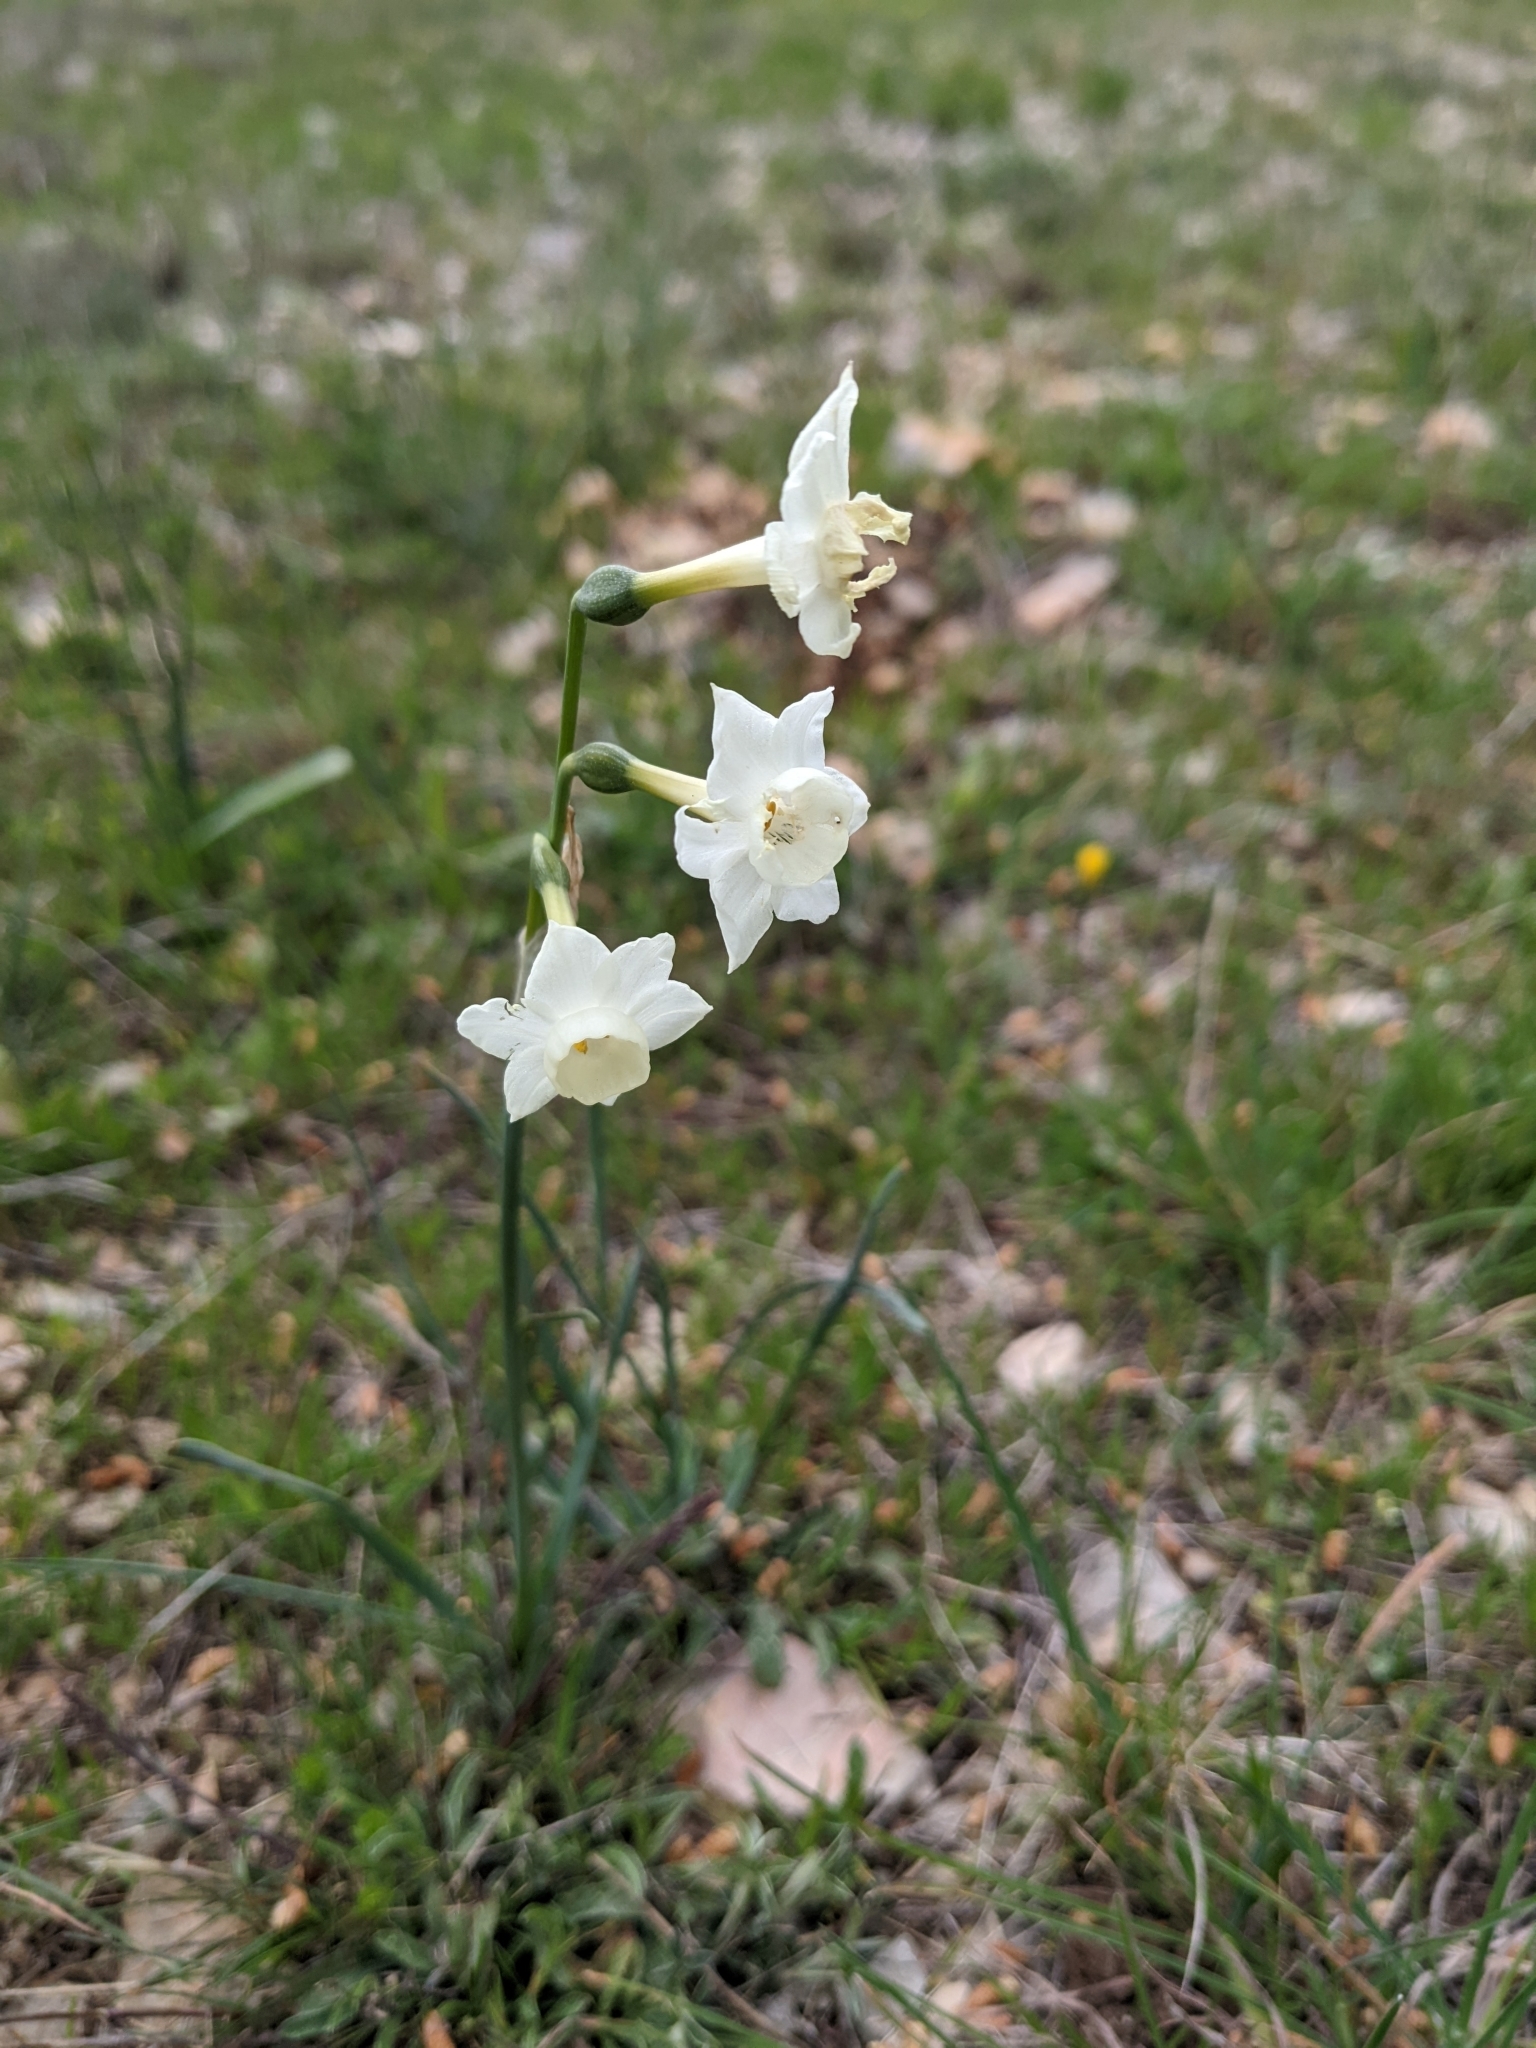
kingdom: Plantae
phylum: Tracheophyta
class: Liliopsida
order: Asparagales
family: Amaryllidaceae
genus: Narcissus
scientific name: Narcissus dubius
